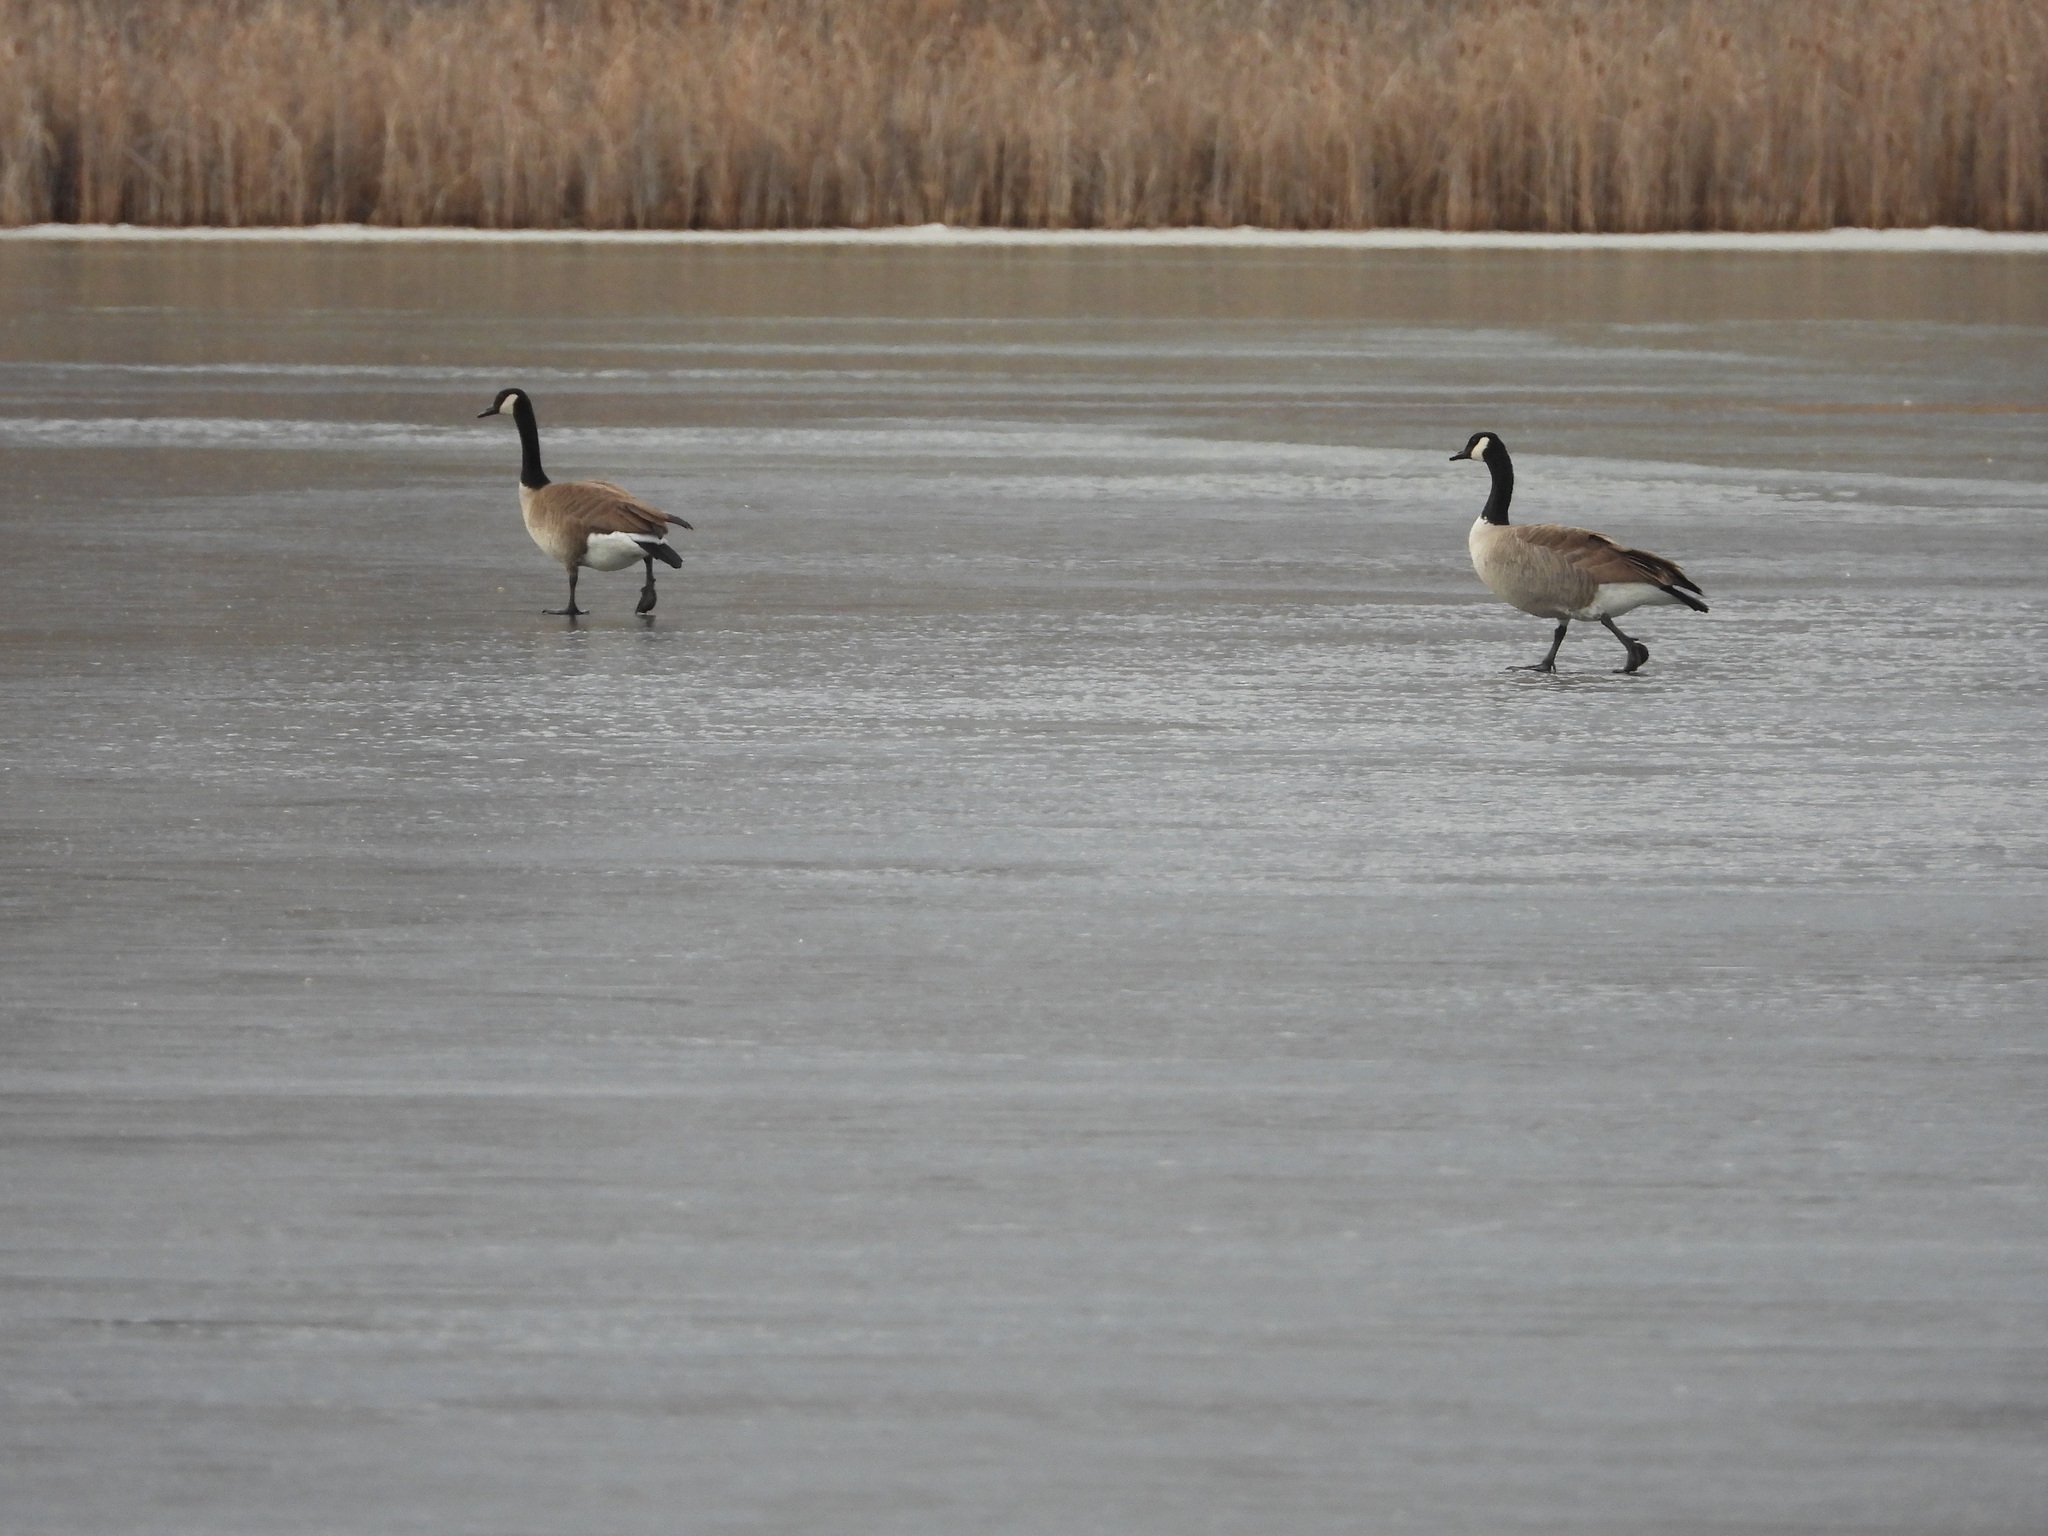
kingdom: Animalia
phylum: Chordata
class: Aves
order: Anseriformes
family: Anatidae
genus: Branta
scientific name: Branta canadensis
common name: Canada goose
